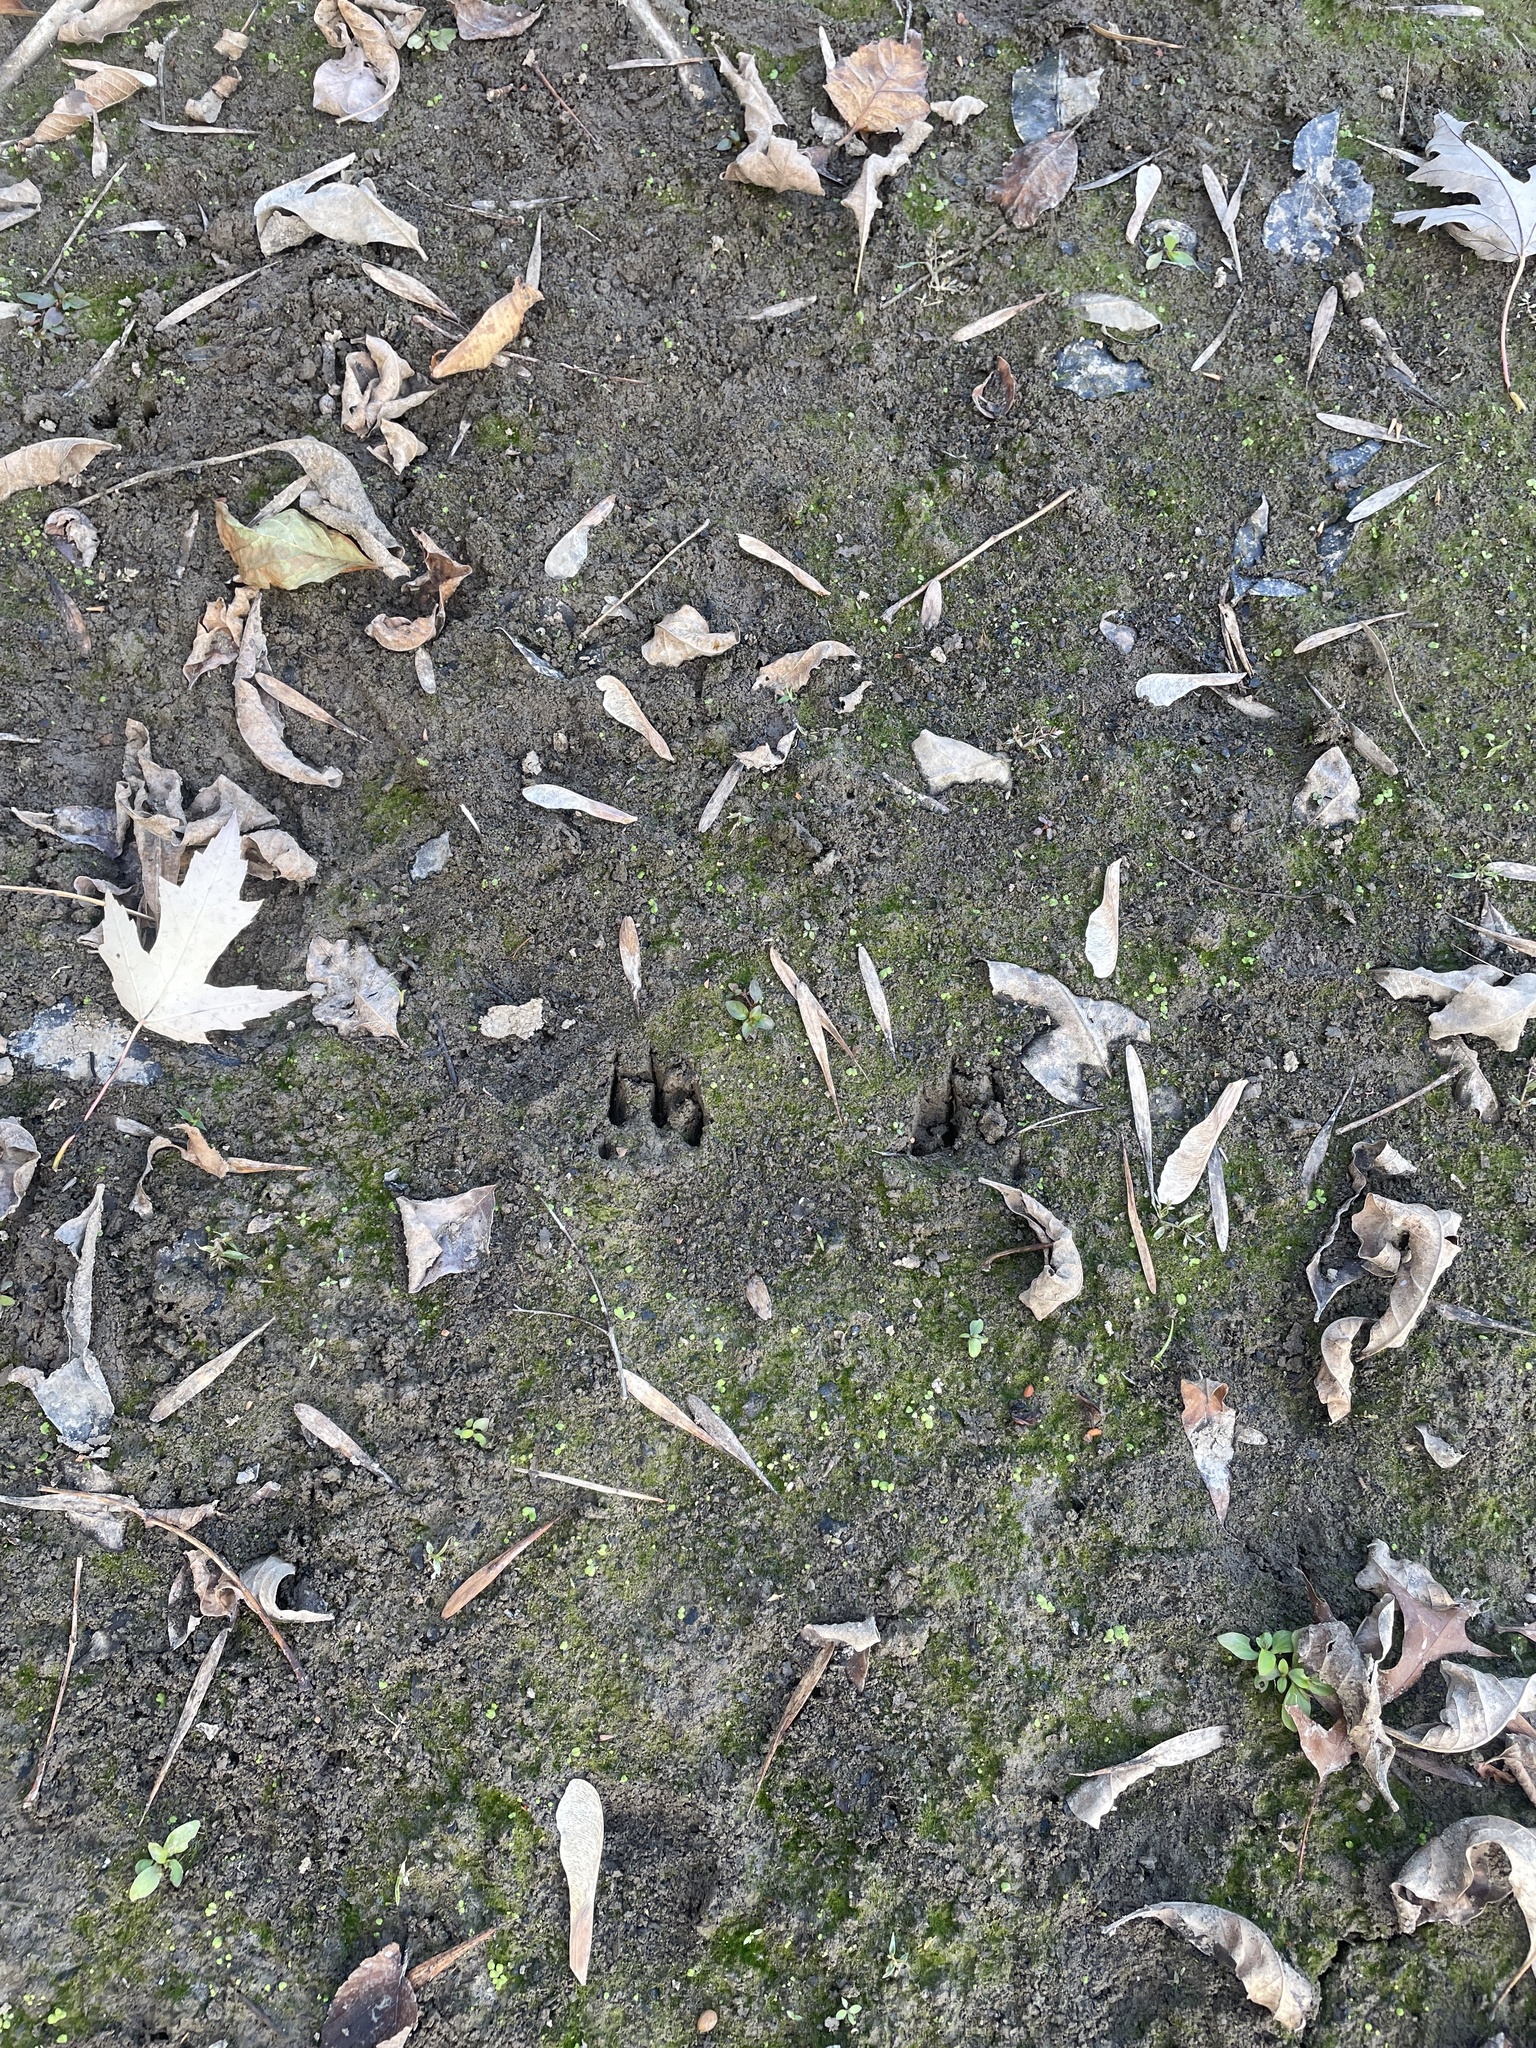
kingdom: Animalia
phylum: Chordata
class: Mammalia
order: Carnivora
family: Mephitidae
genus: Mephitis
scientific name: Mephitis mephitis
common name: Striped skunk
